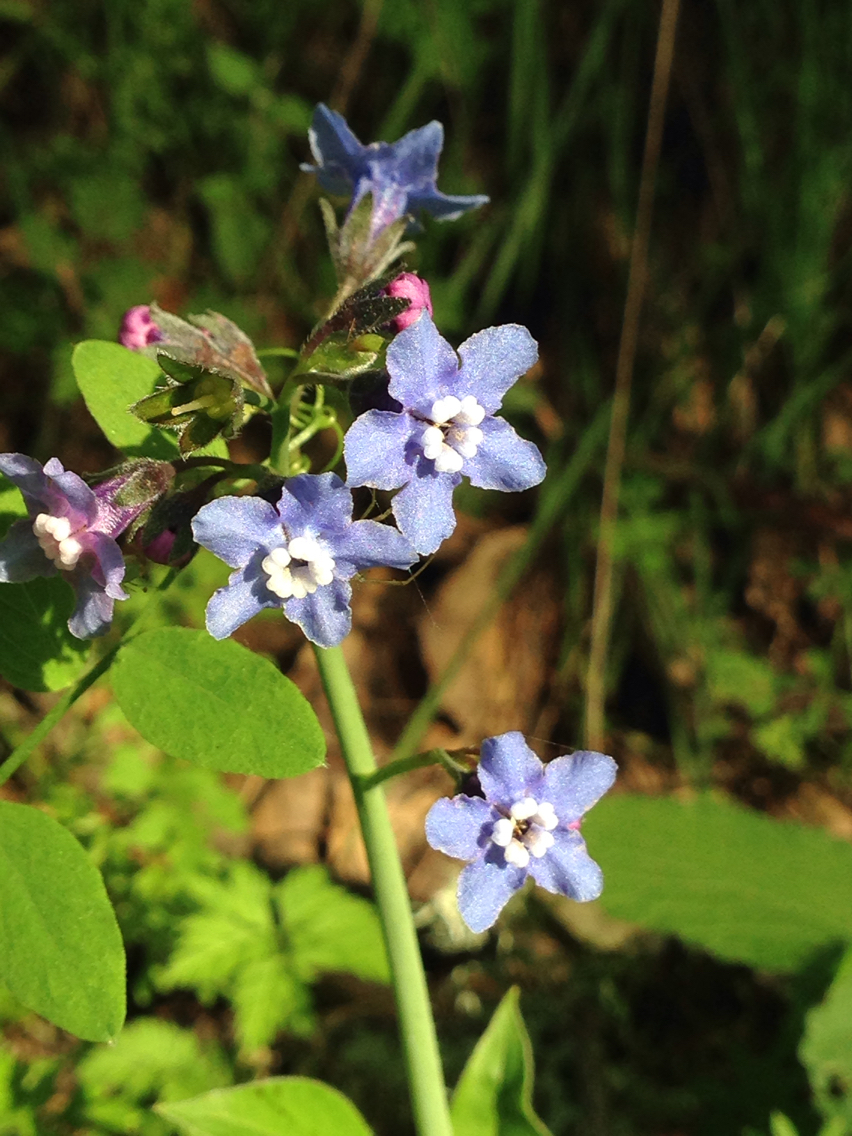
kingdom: Plantae
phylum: Tracheophyta
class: Magnoliopsida
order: Boraginales
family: Boraginaceae
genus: Adelinia
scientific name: Adelinia grande
